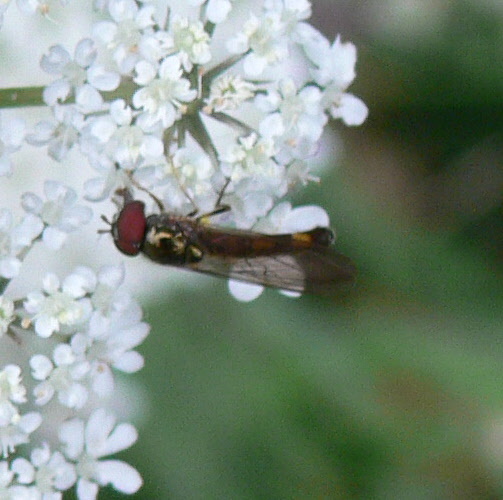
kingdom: Animalia
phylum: Arthropoda
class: Insecta
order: Diptera
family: Syrphidae
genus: Melanostoma
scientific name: Melanostoma mellina
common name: Hover fly
